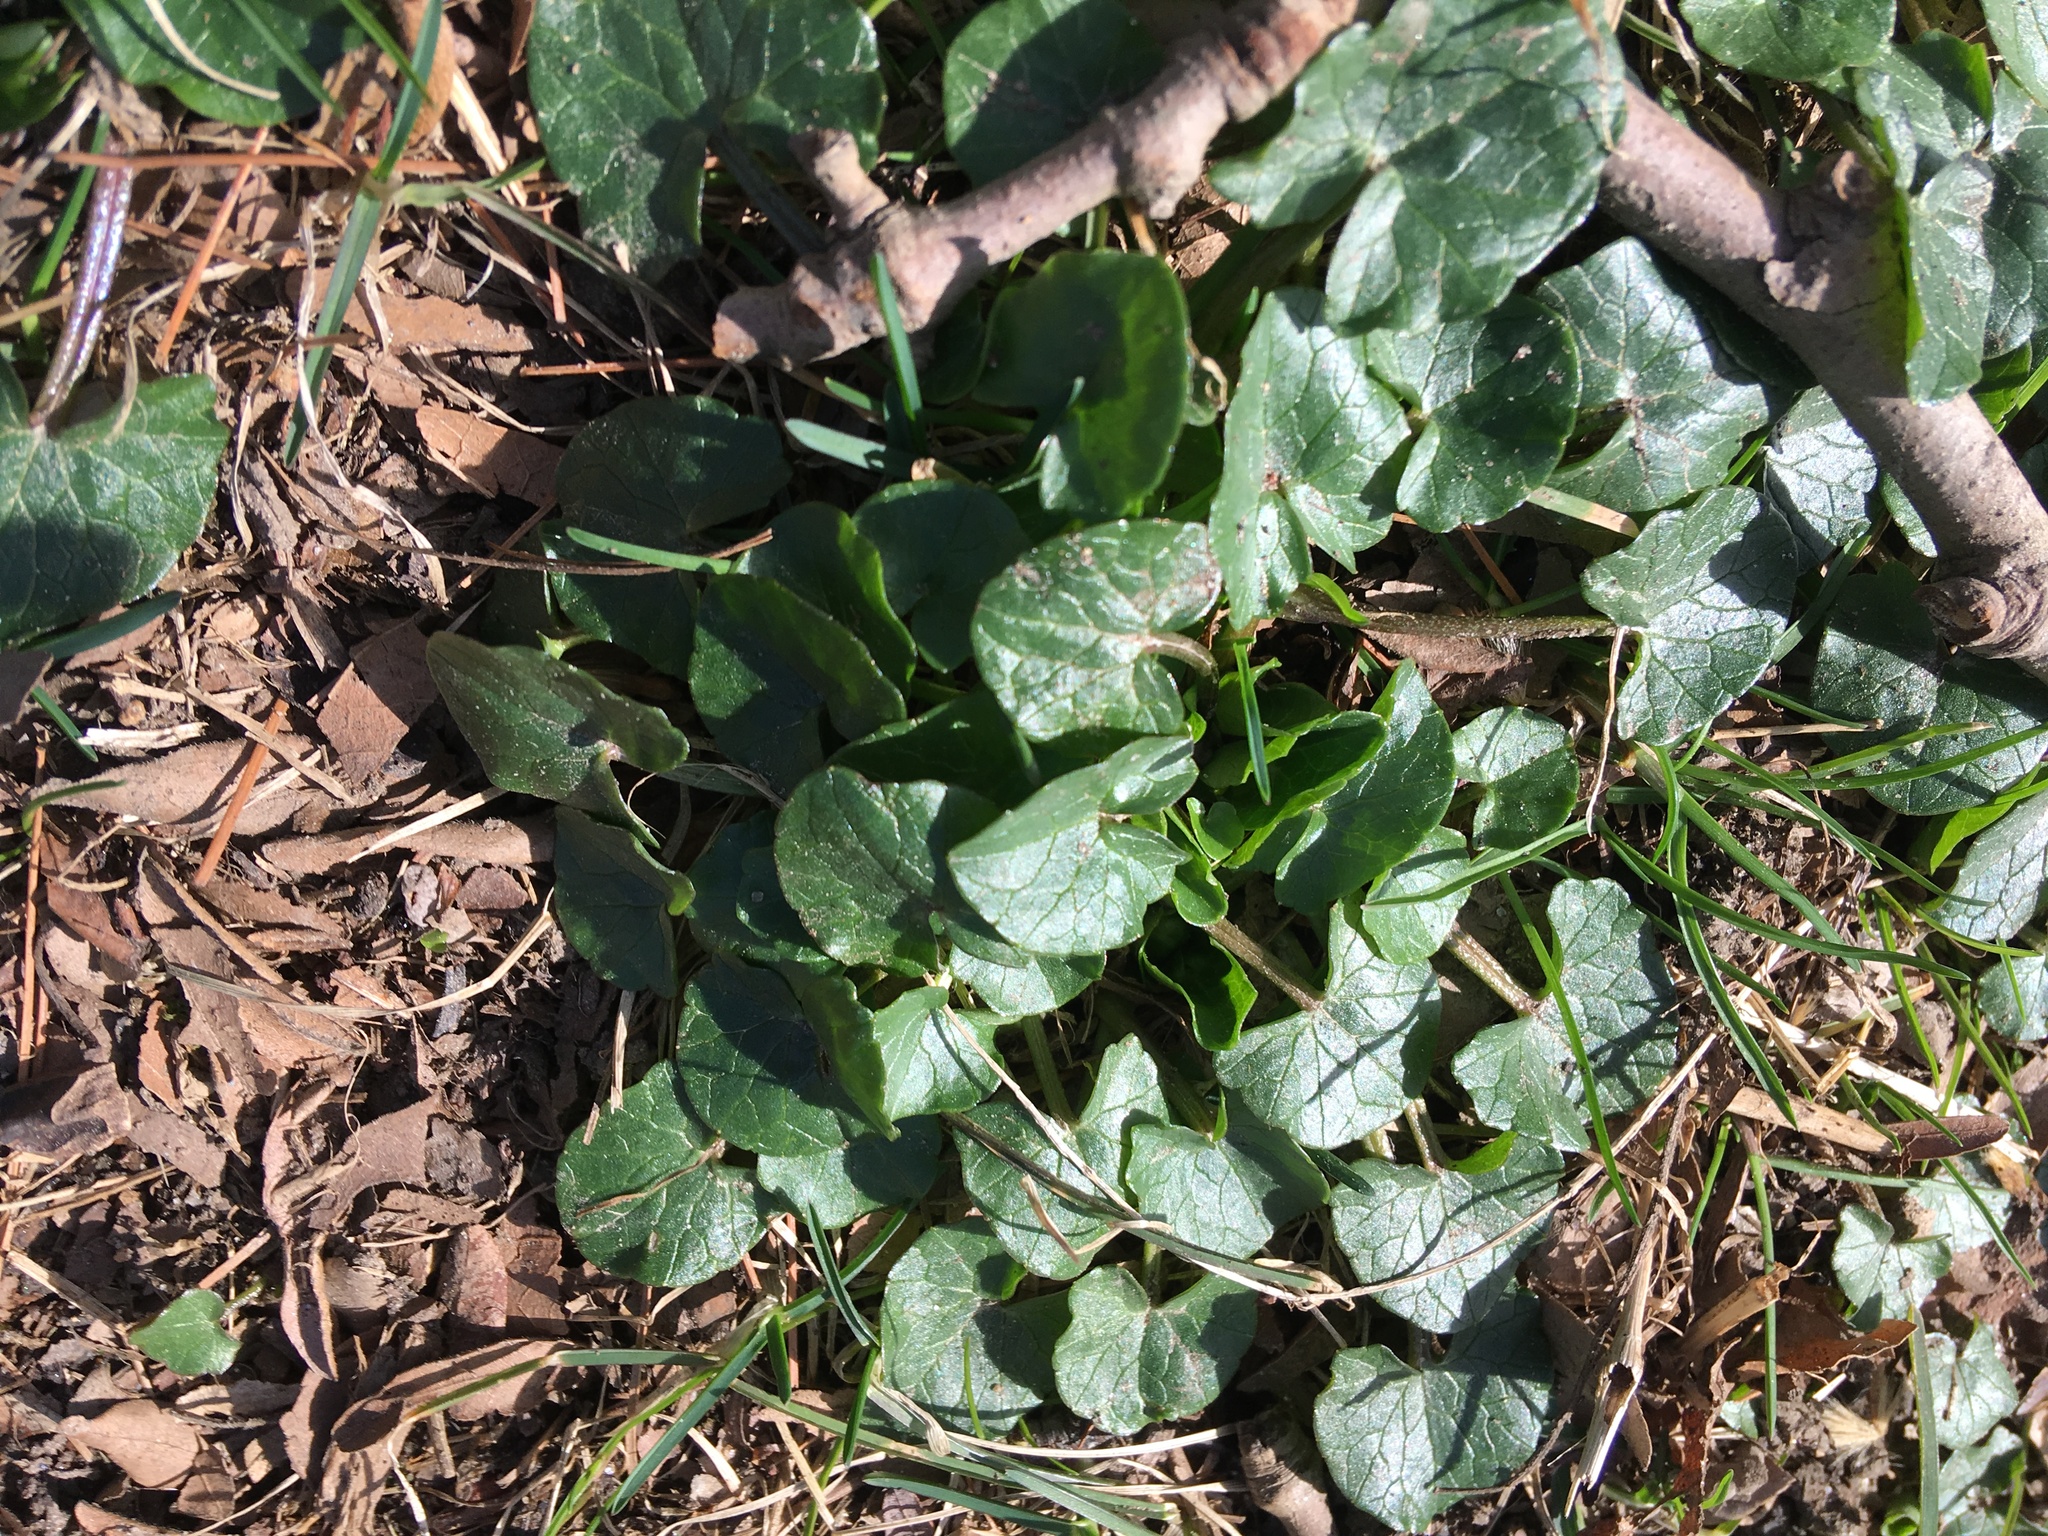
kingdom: Plantae
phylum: Tracheophyta
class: Magnoliopsida
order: Ranunculales
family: Ranunculaceae
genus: Ficaria
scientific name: Ficaria verna
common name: Lesser celandine
